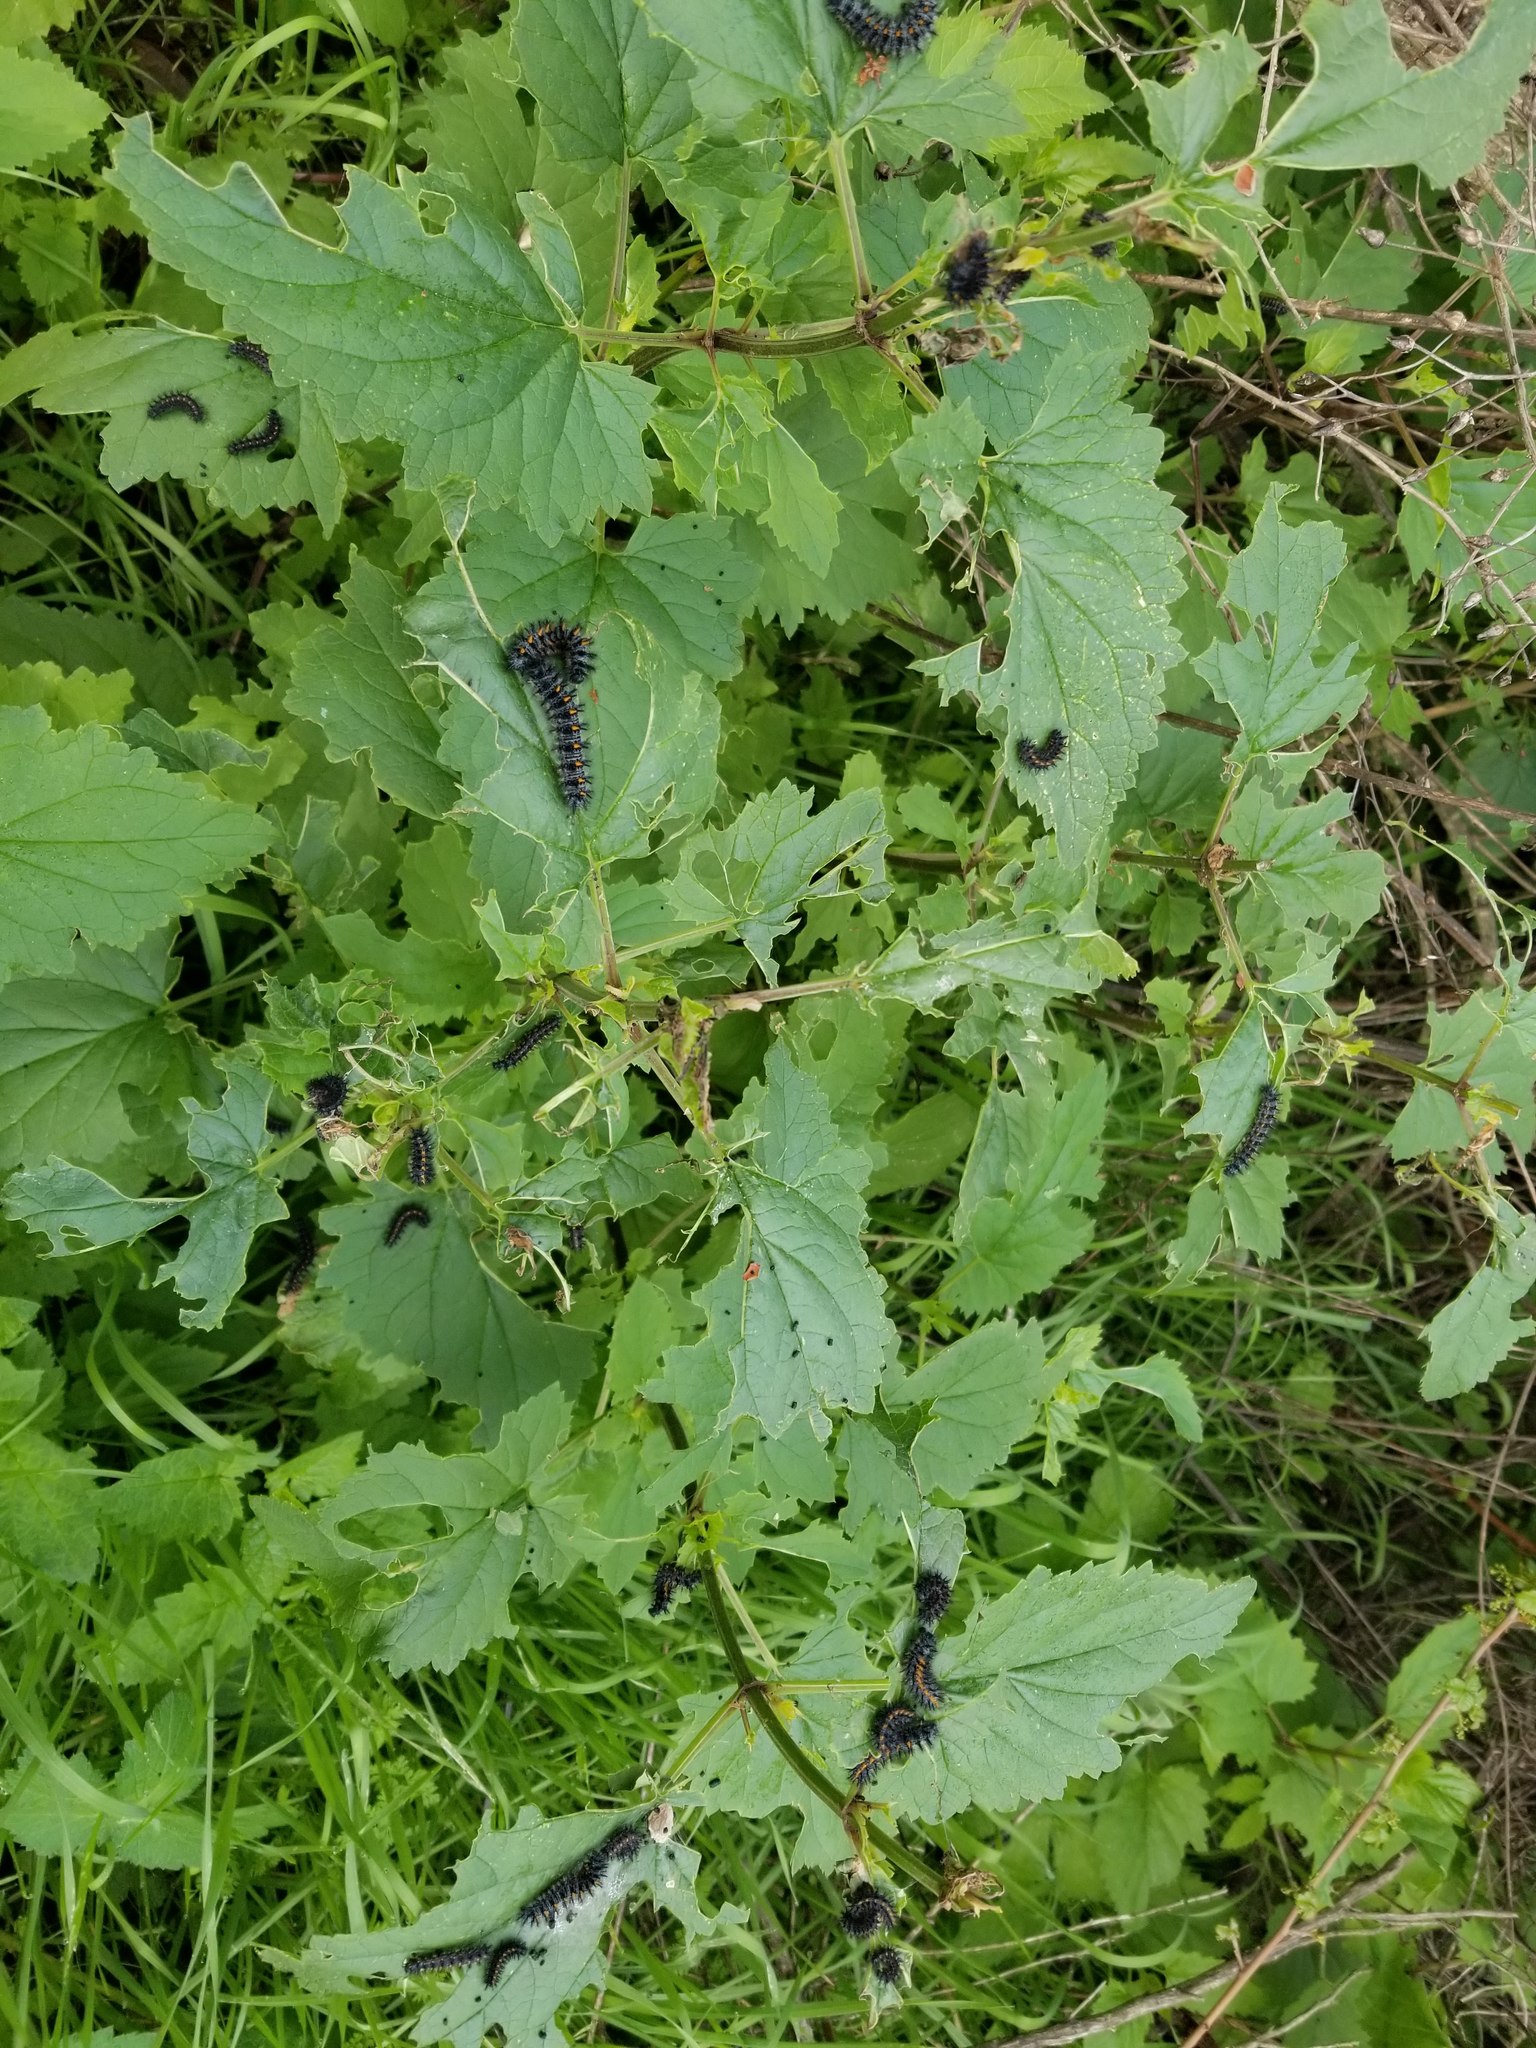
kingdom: Animalia
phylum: Arthropoda
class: Insecta
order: Lepidoptera
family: Nymphalidae
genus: Occidryas
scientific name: Occidryas chalcedona
